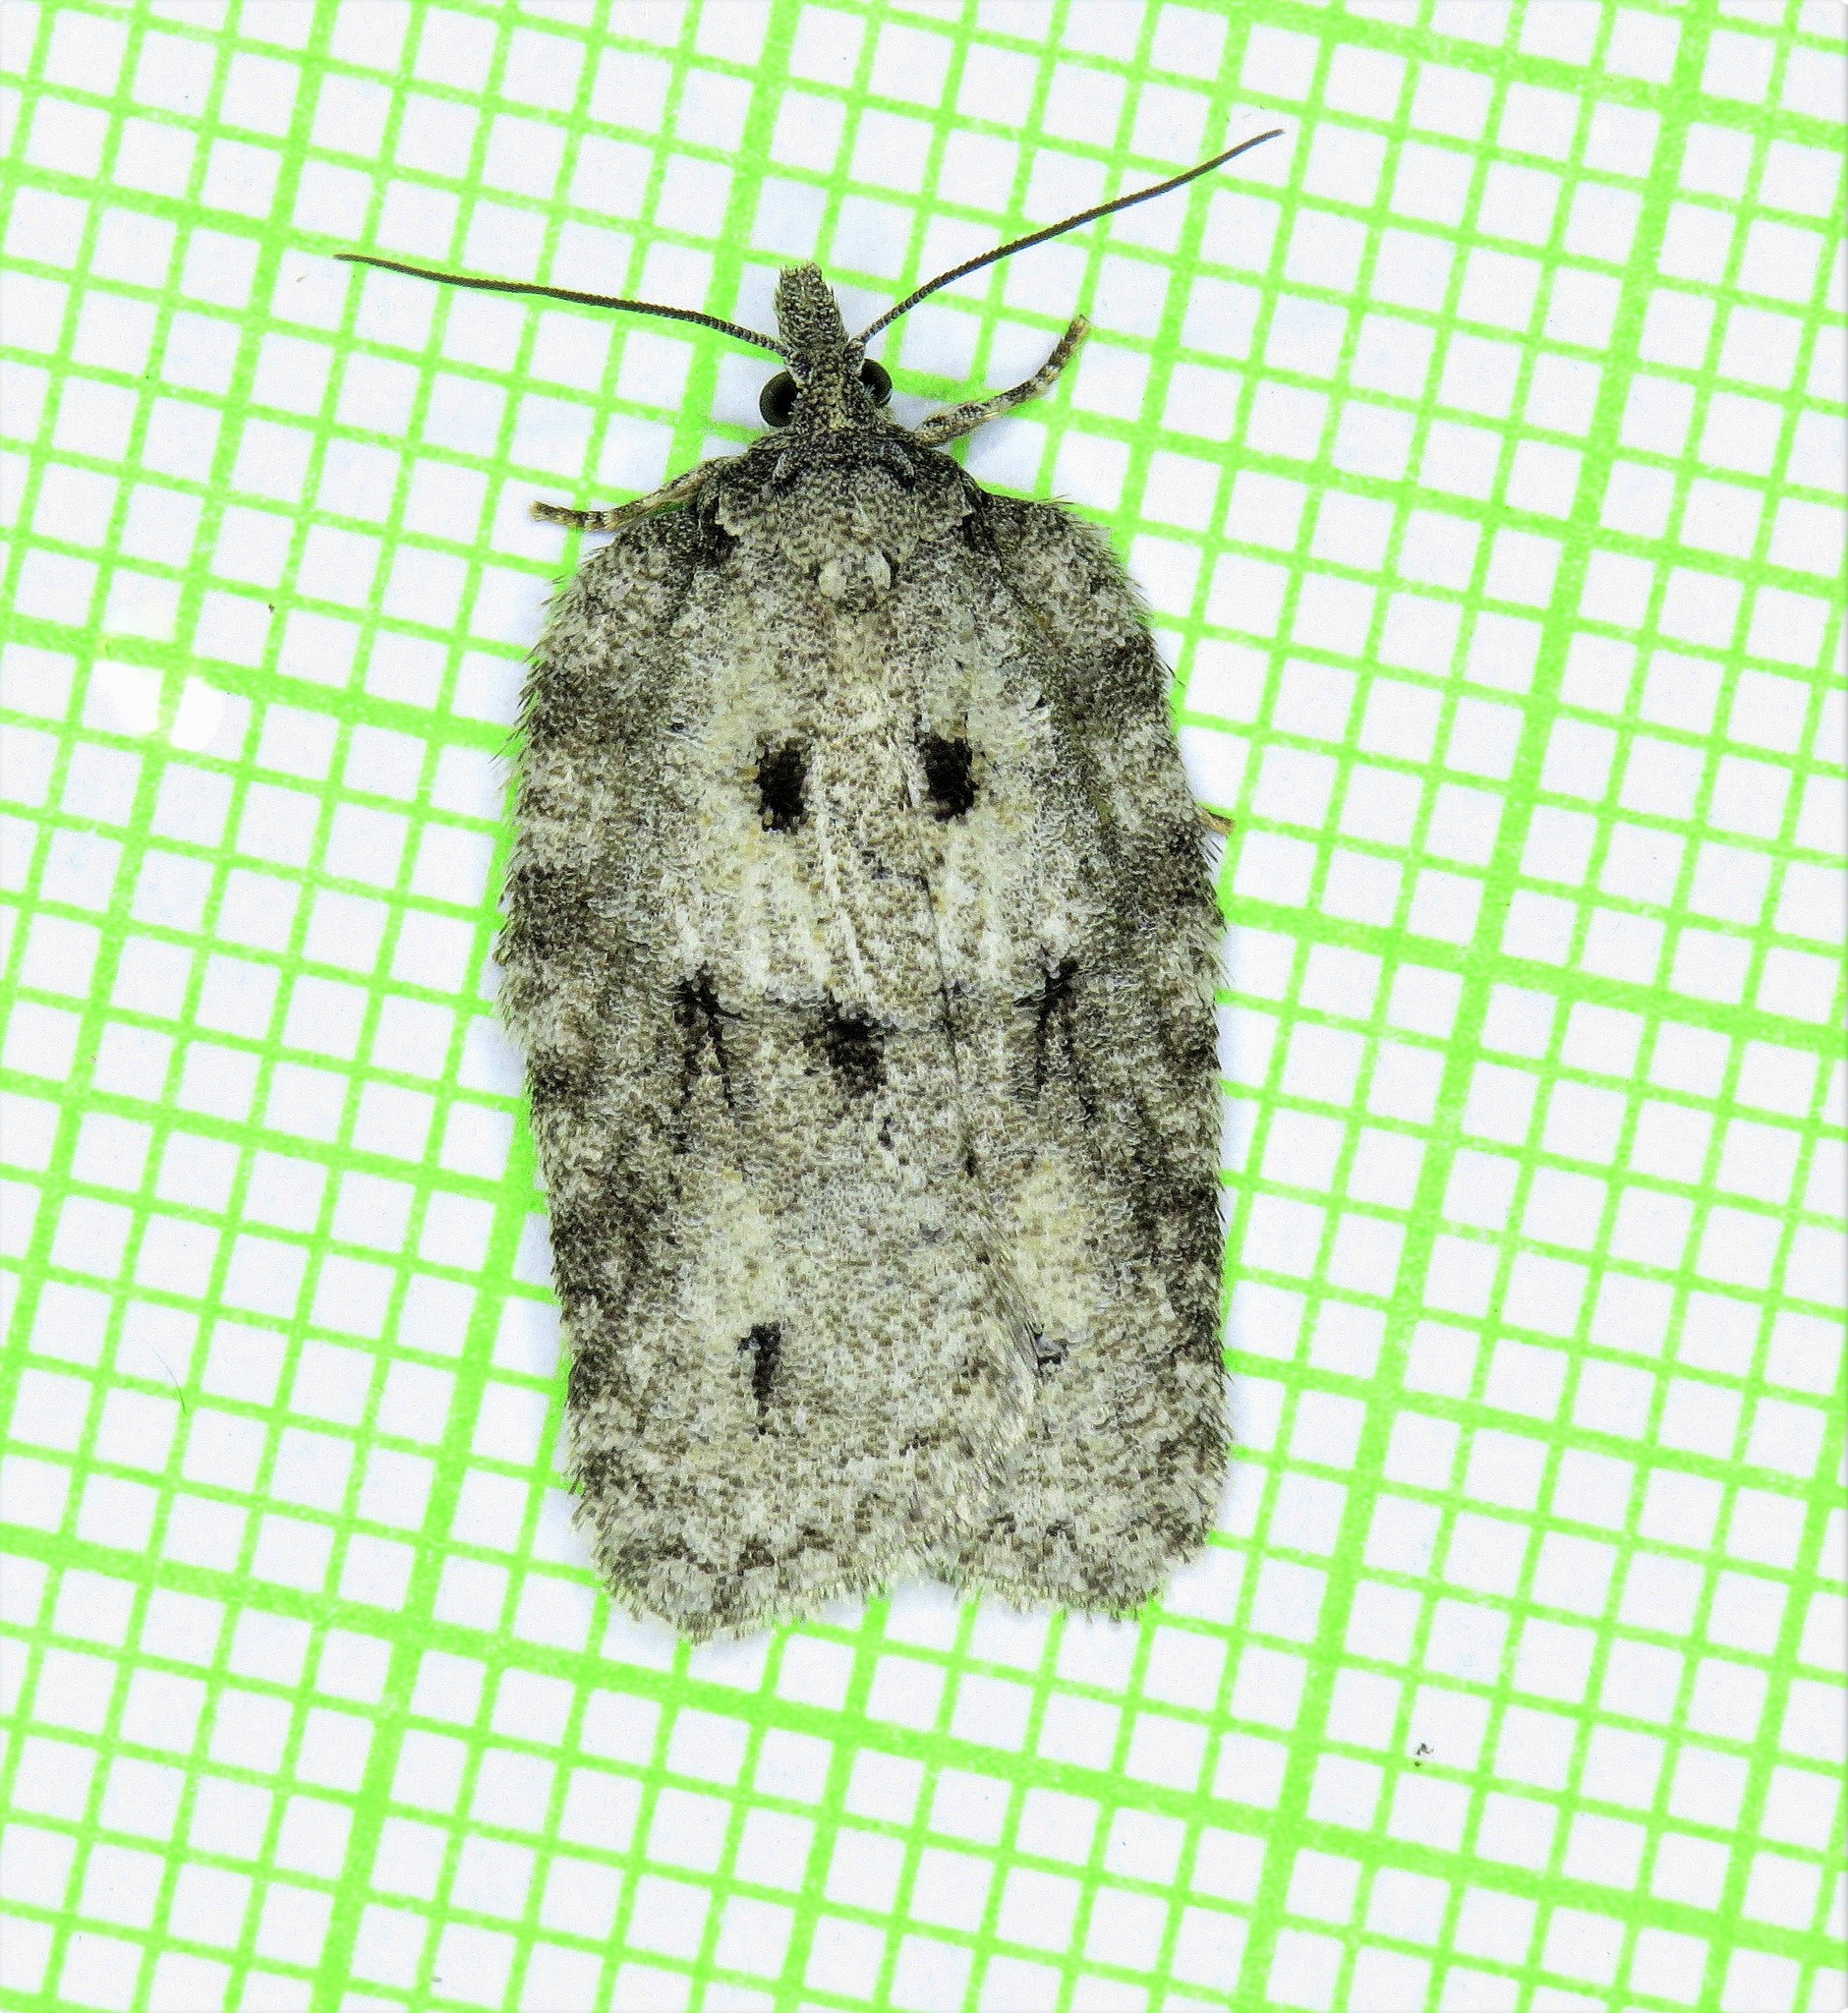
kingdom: Animalia
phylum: Arthropoda
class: Insecta
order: Lepidoptera
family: Tortricidae
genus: Acleris
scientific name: Acleris nigrolinea
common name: Black-lined acleris
